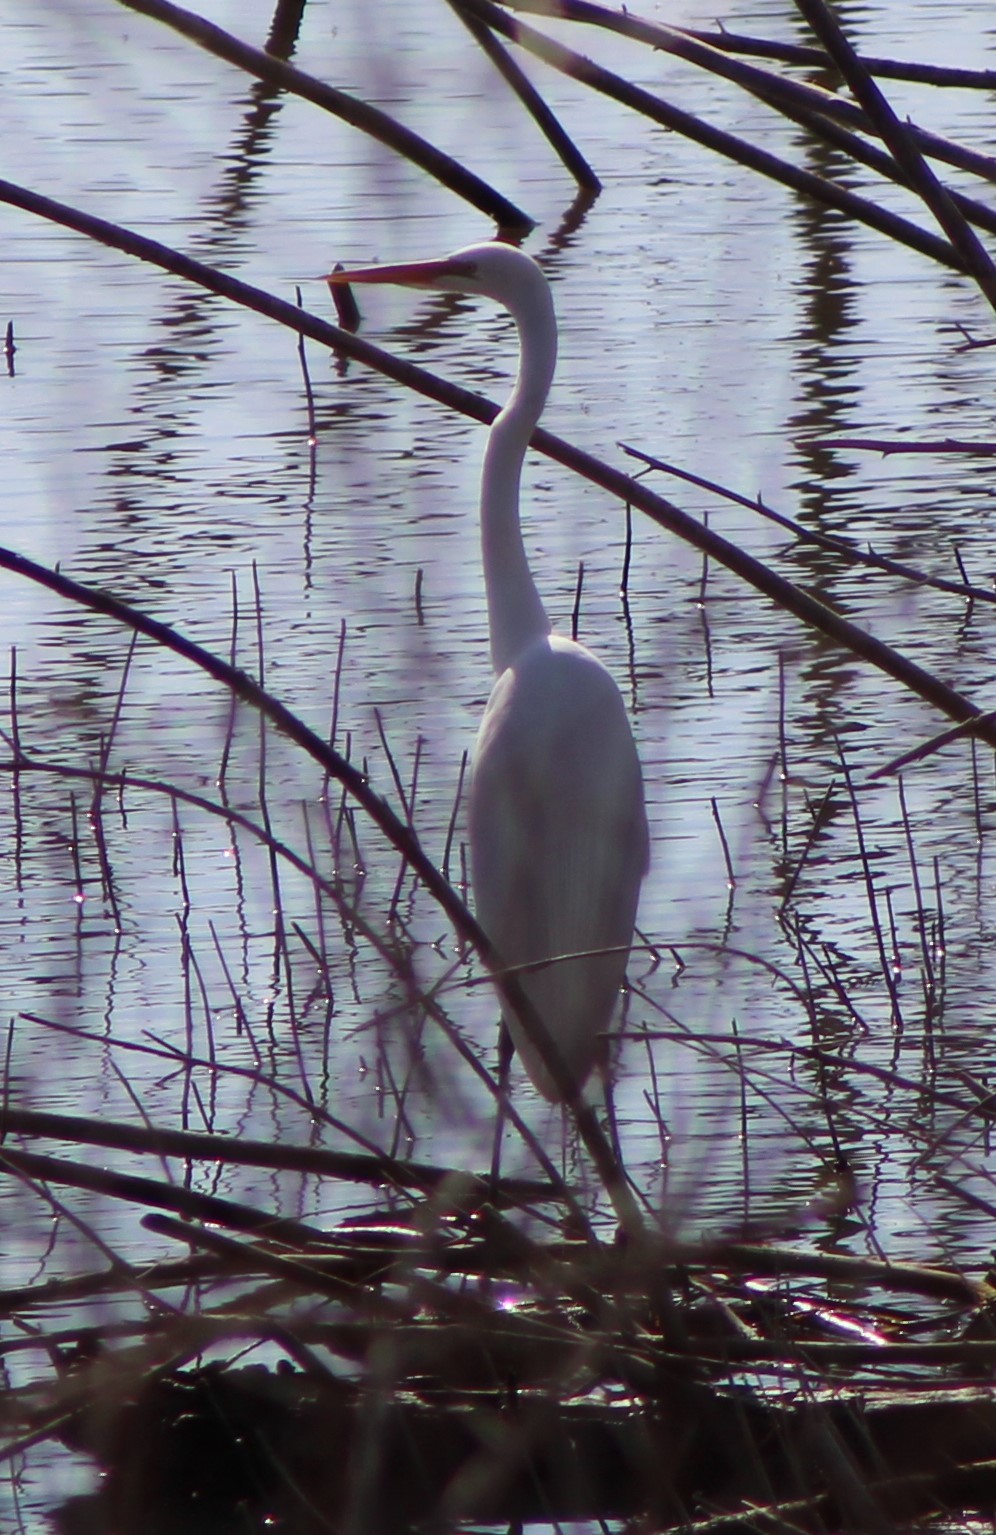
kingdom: Animalia
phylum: Chordata
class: Aves
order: Pelecaniformes
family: Ardeidae
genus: Ardea
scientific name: Ardea alba
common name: Great egret
